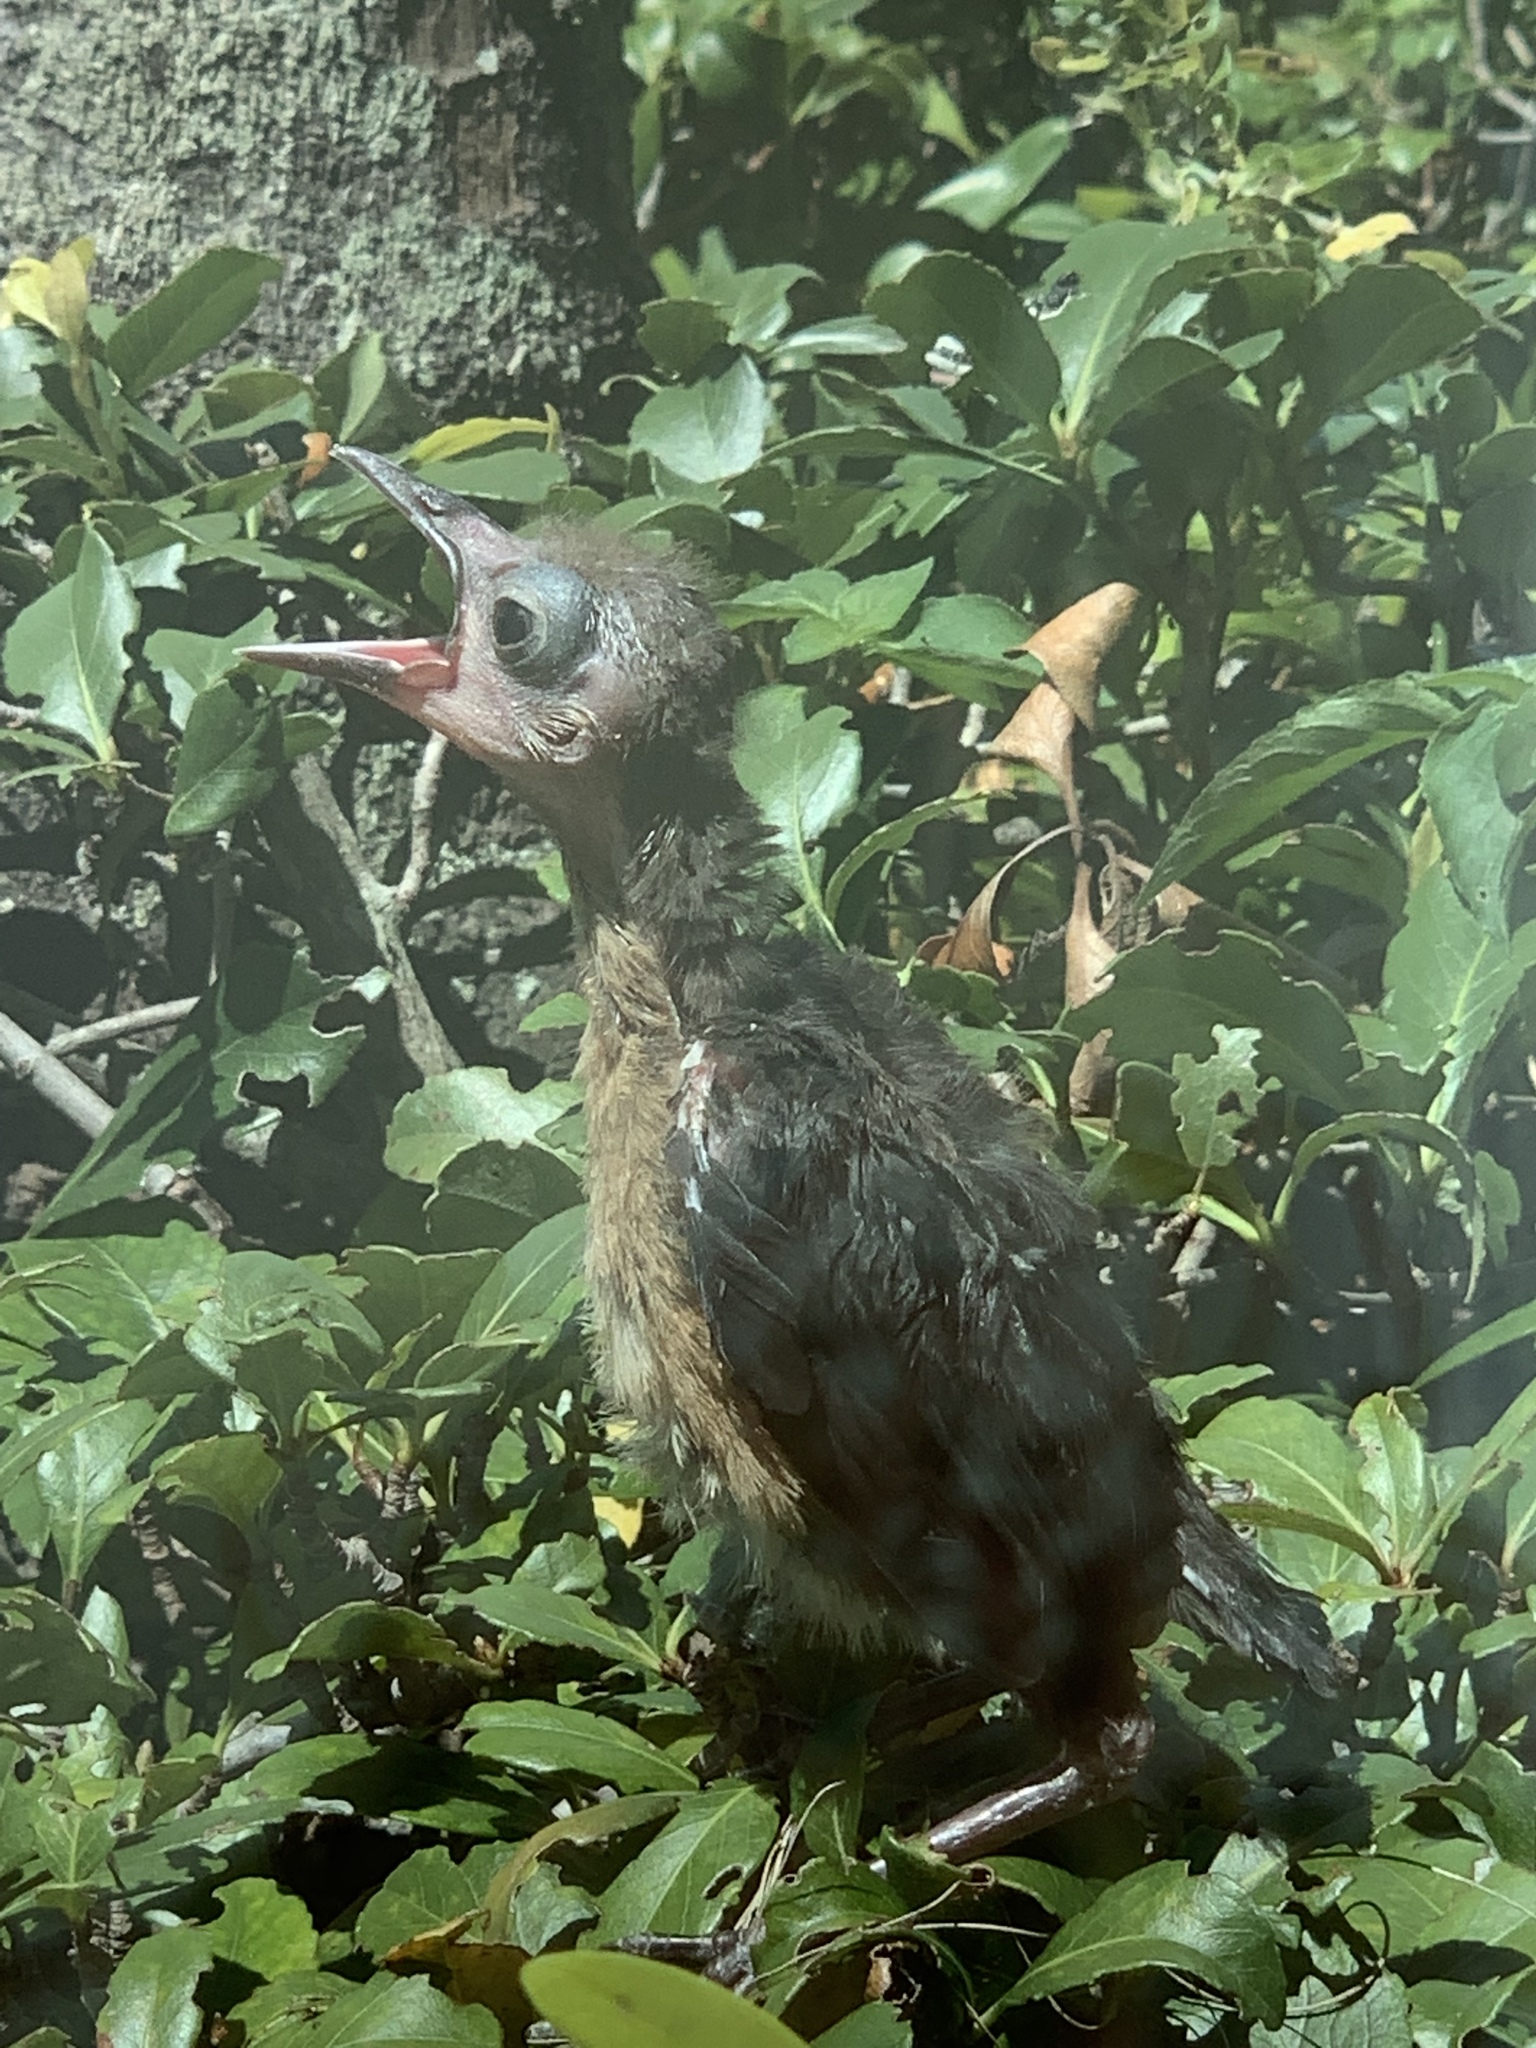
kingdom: Animalia
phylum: Chordata
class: Aves
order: Passeriformes
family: Icteridae
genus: Quiscalus
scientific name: Quiscalus major
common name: Boat-tailed grackle
